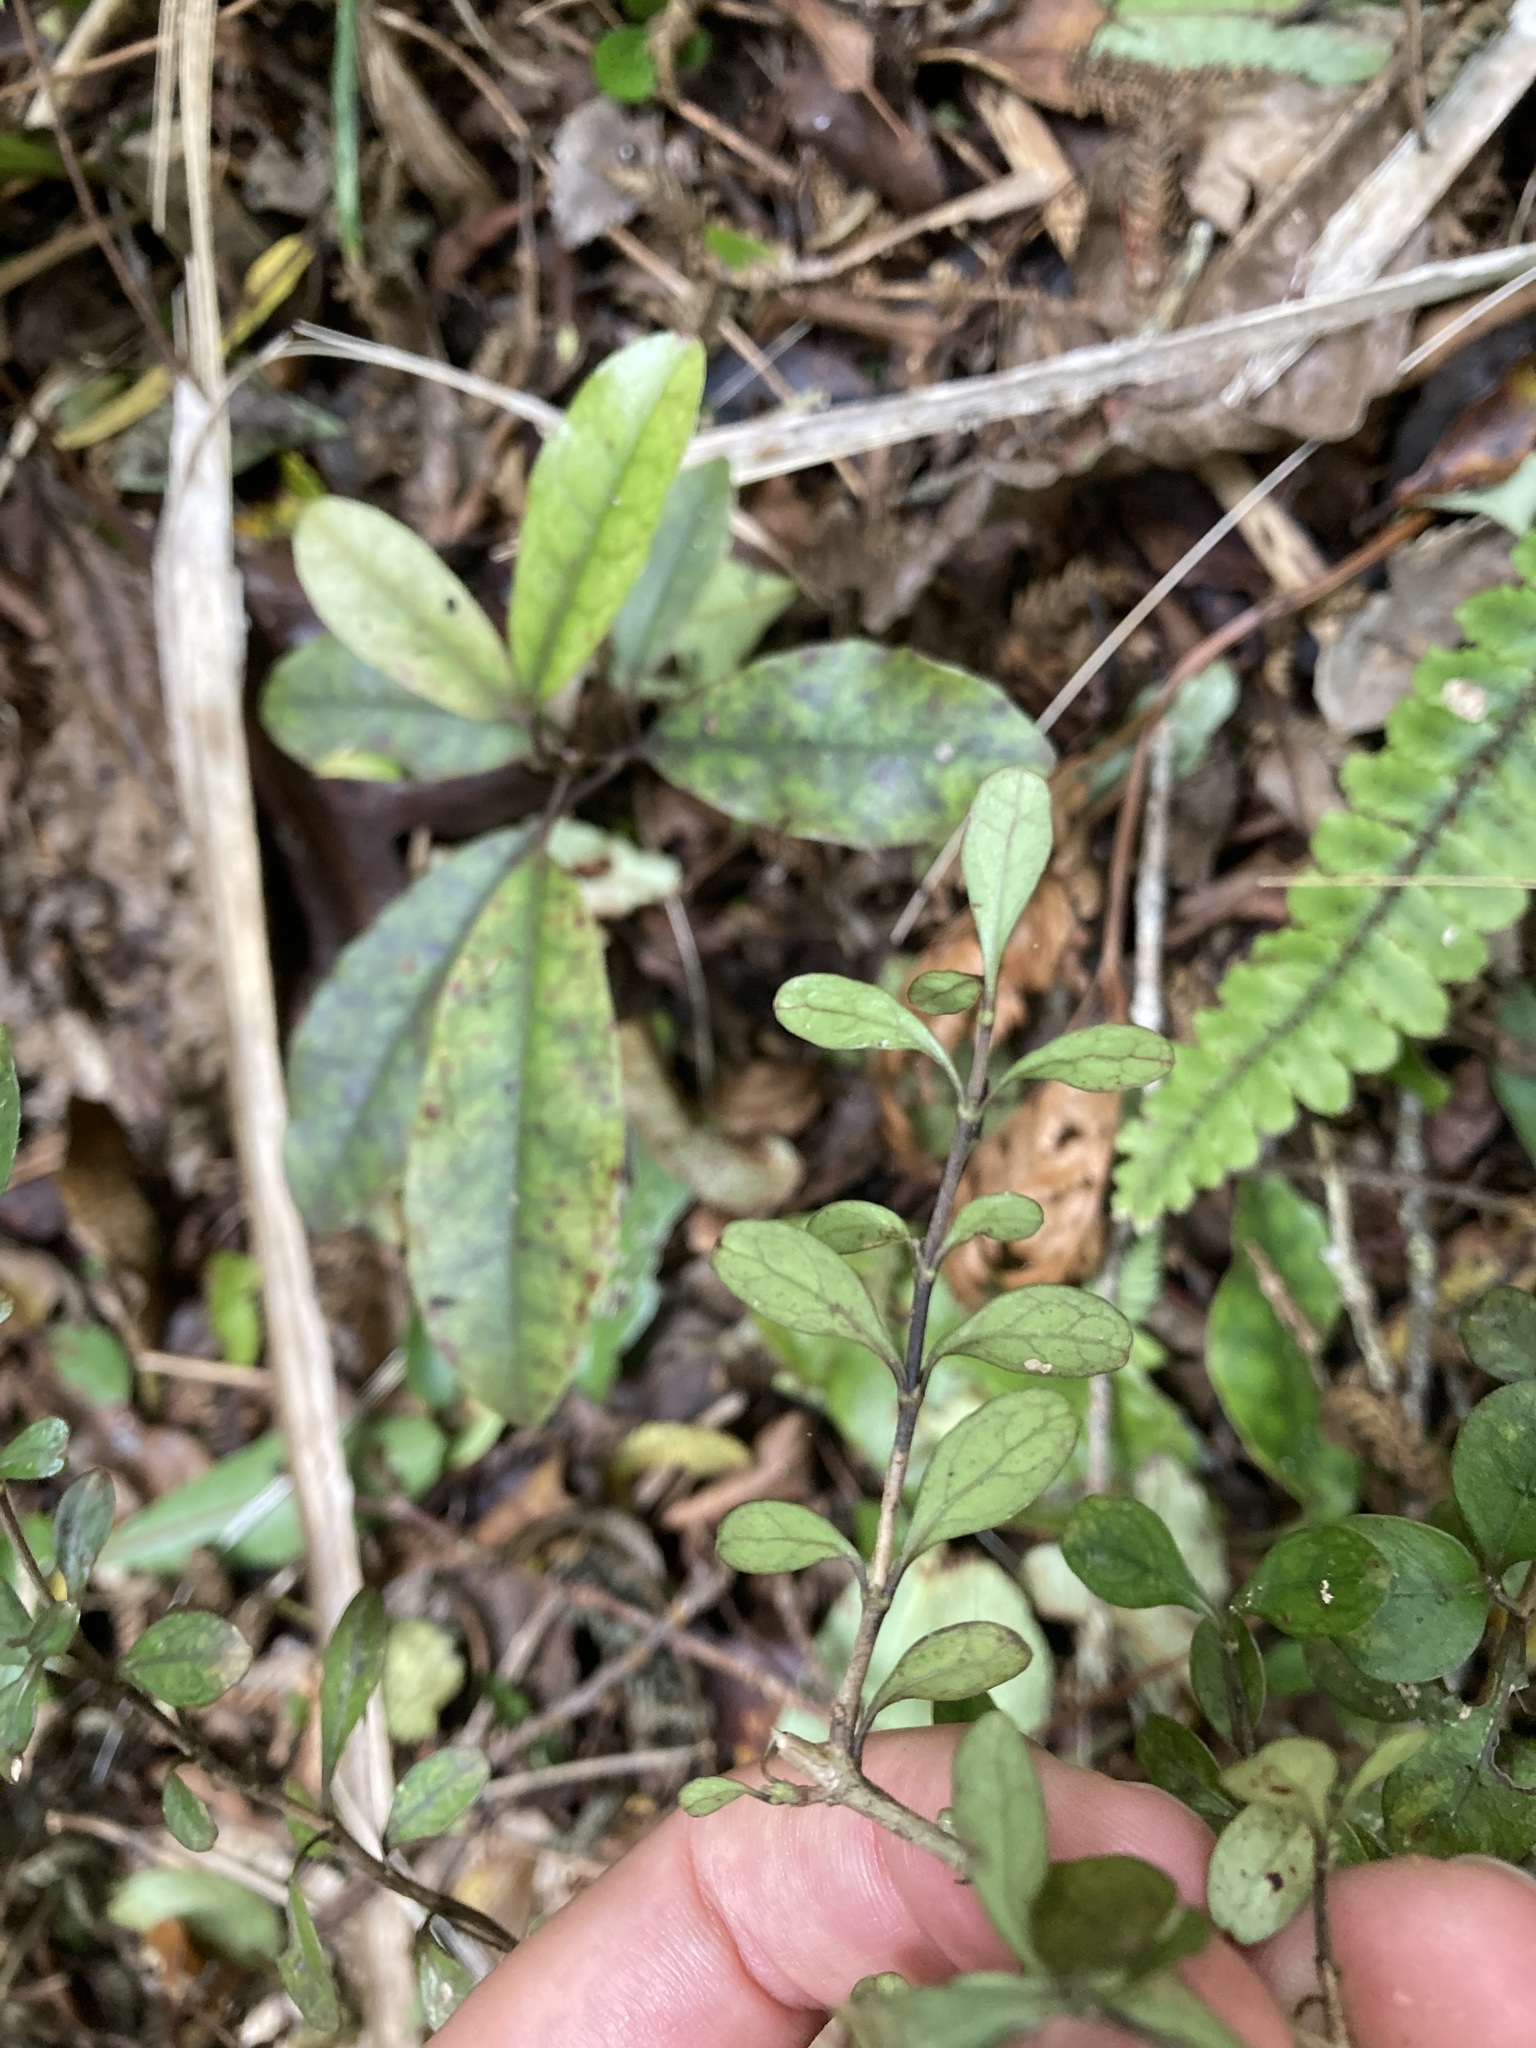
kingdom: Plantae
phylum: Tracheophyta
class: Magnoliopsida
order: Gentianales
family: Rubiaceae
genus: Coprosma
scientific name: Coprosma colensoi
